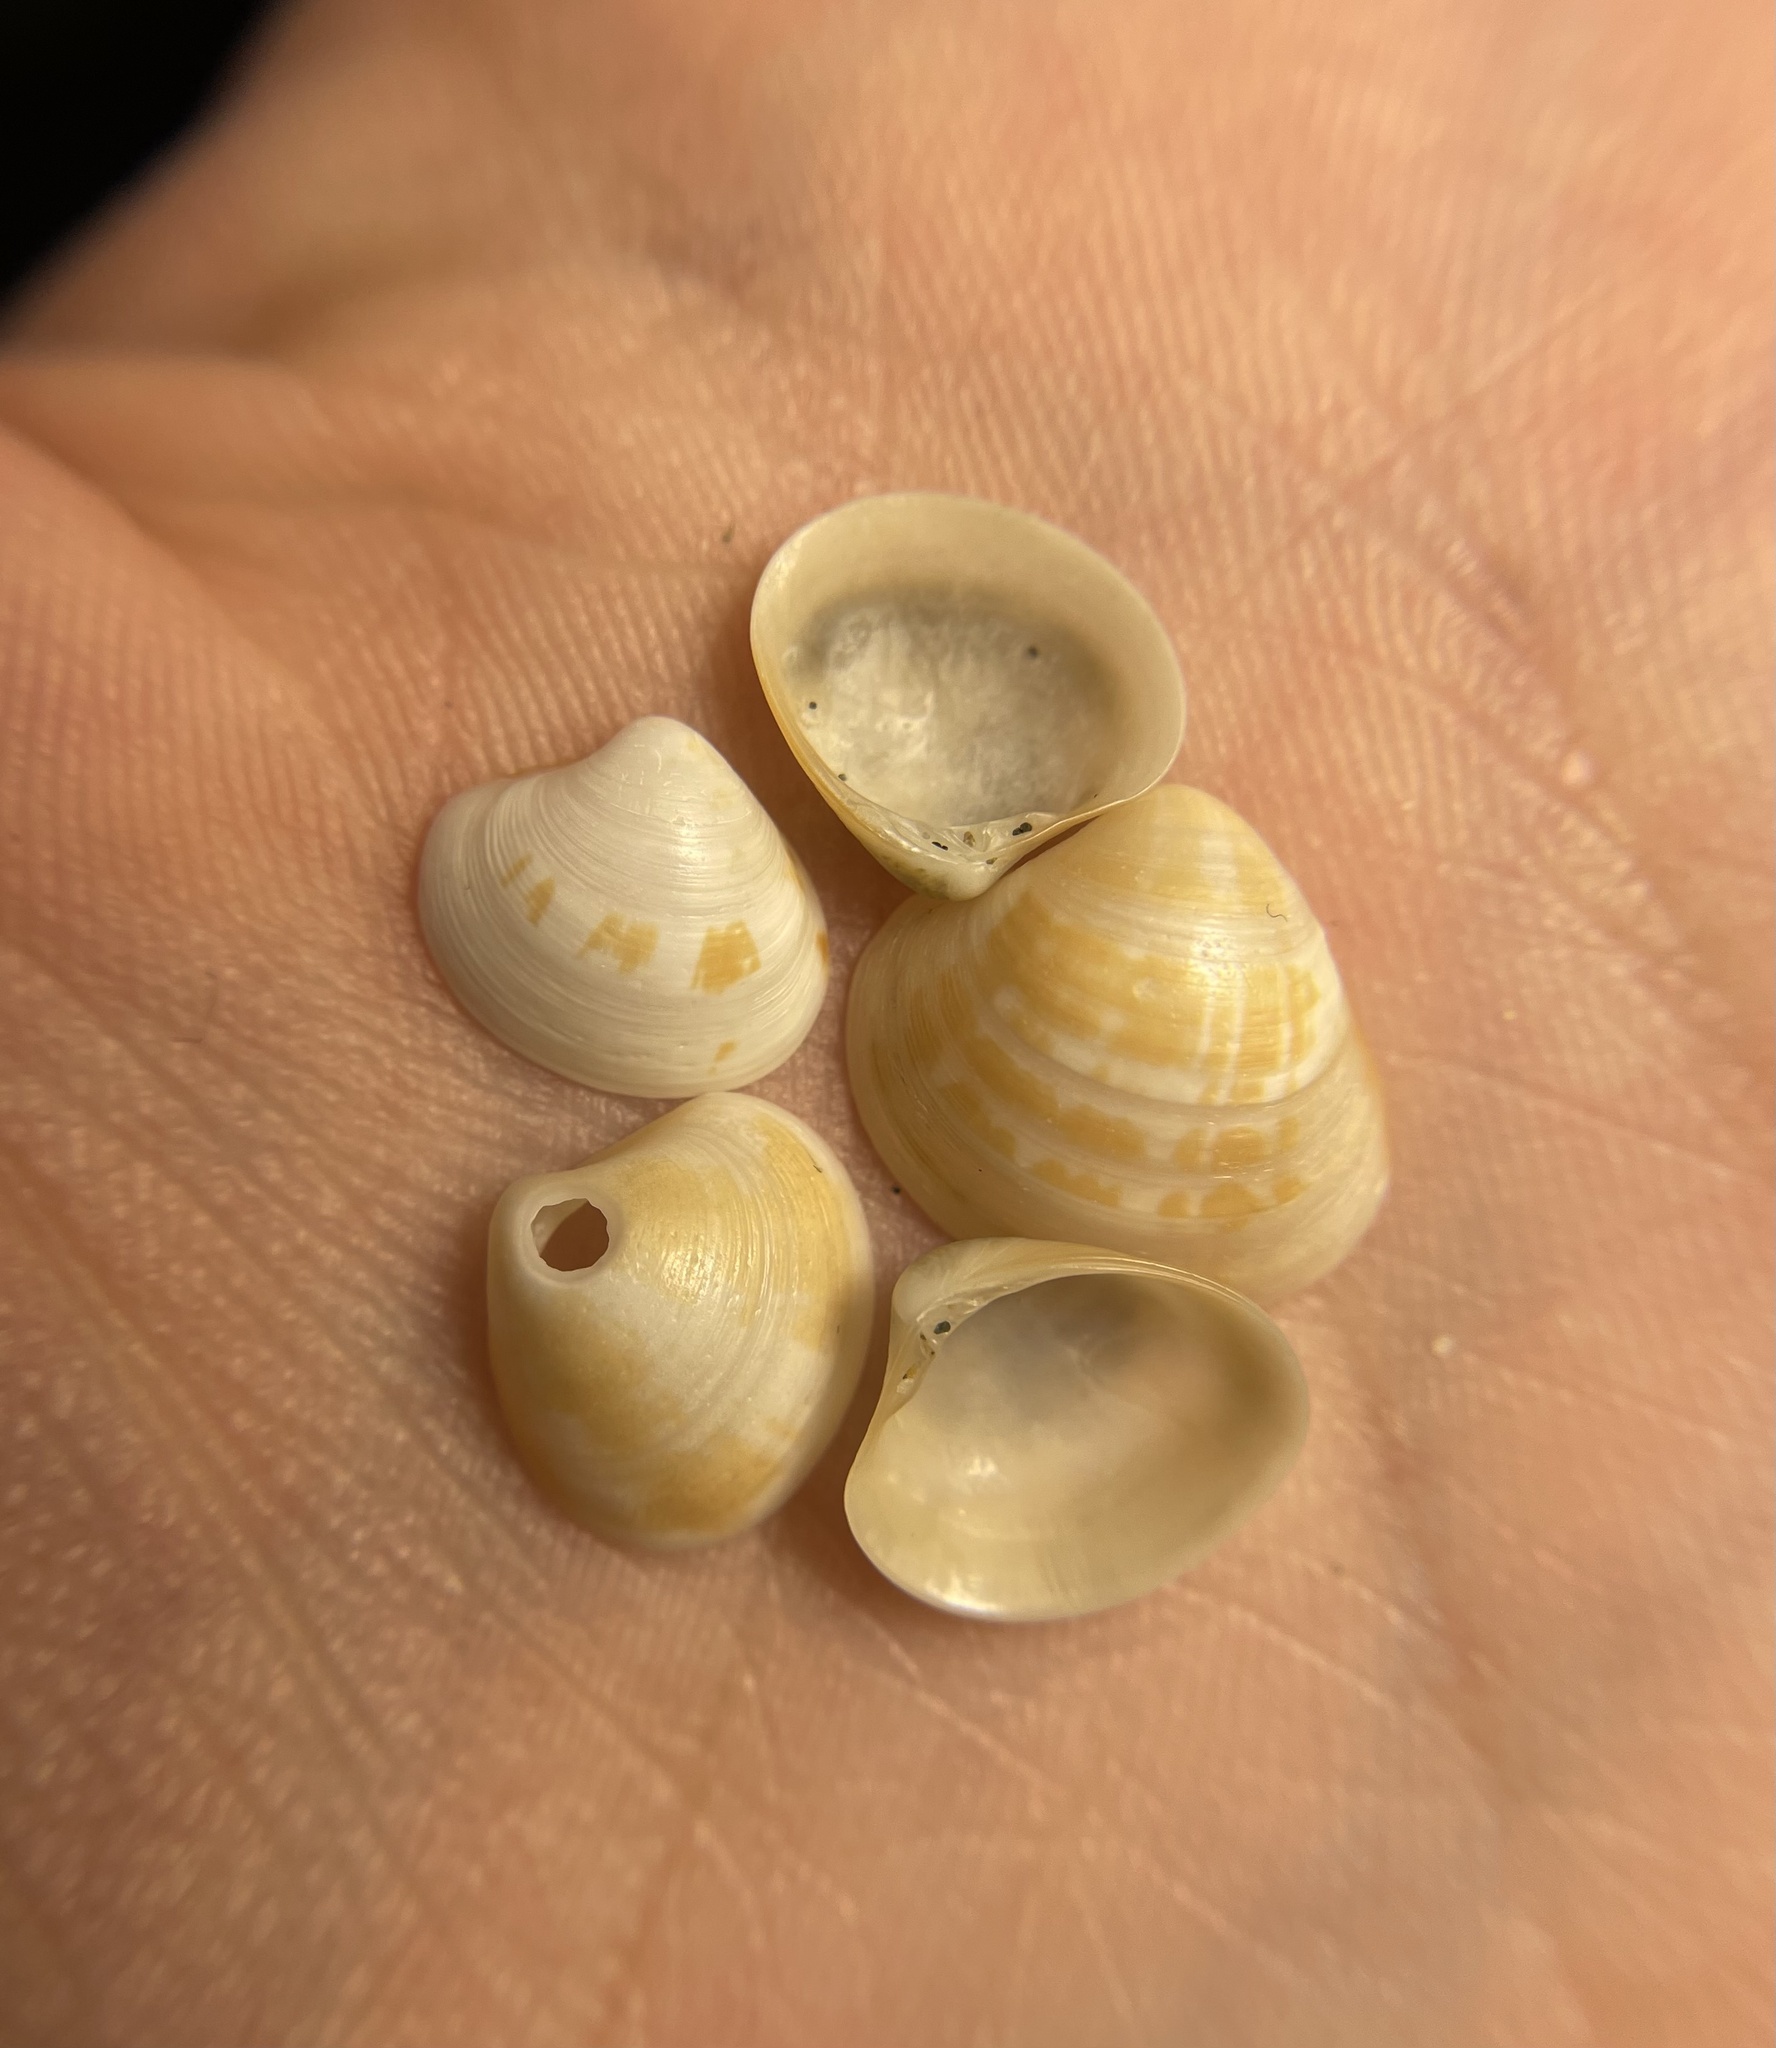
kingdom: Animalia
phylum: Mollusca
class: Bivalvia
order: Venerida
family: Veneridae
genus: Pitar
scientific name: Pitar rudis
